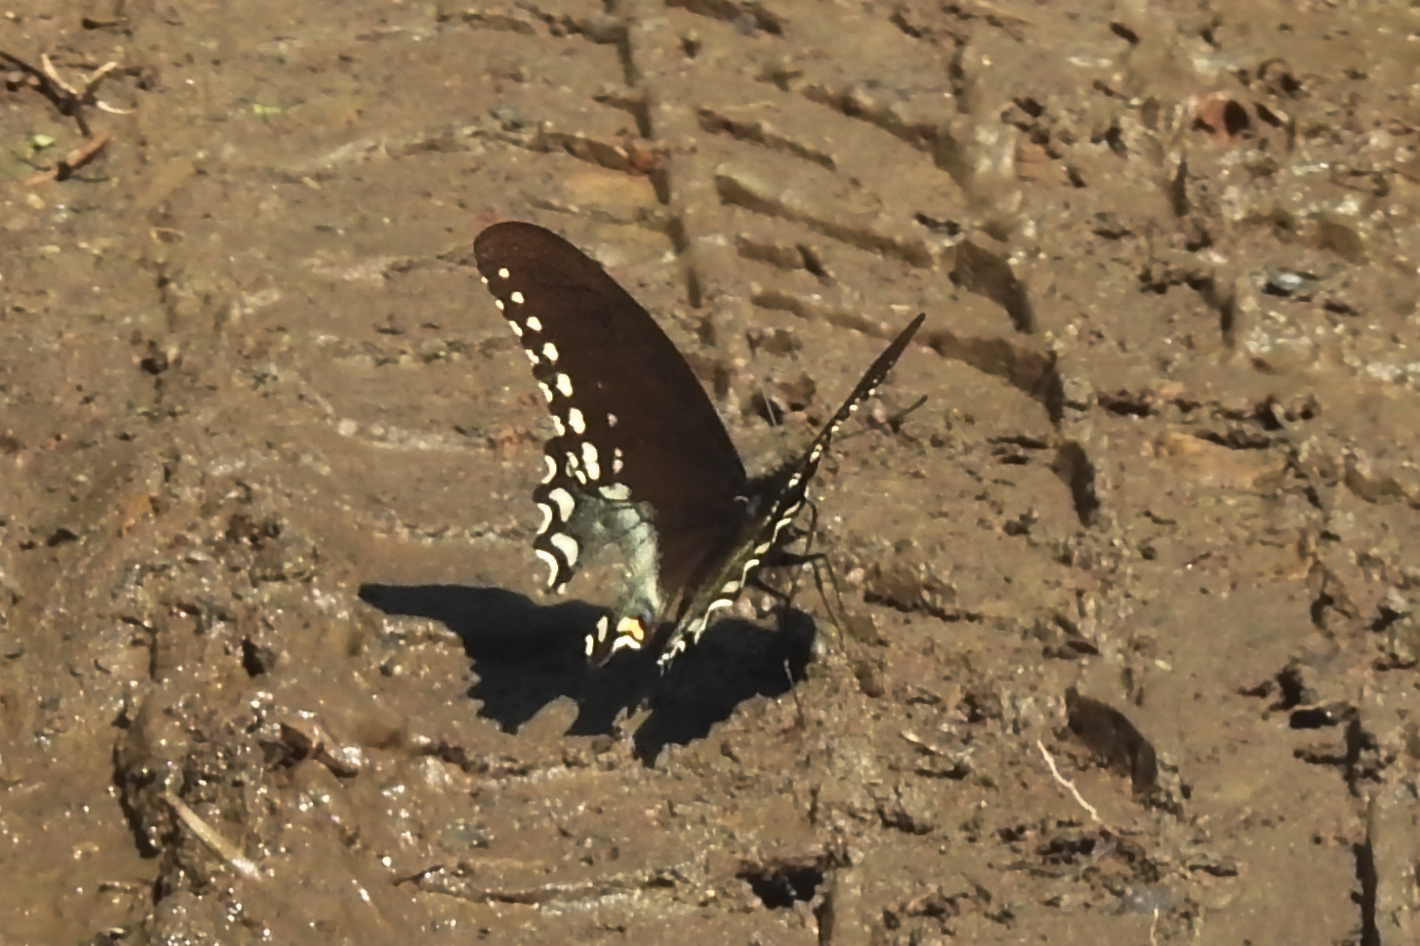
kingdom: Animalia
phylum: Arthropoda
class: Insecta
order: Lepidoptera
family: Papilionidae
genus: Papilio
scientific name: Papilio troilus
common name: Spicebush swallowtail
